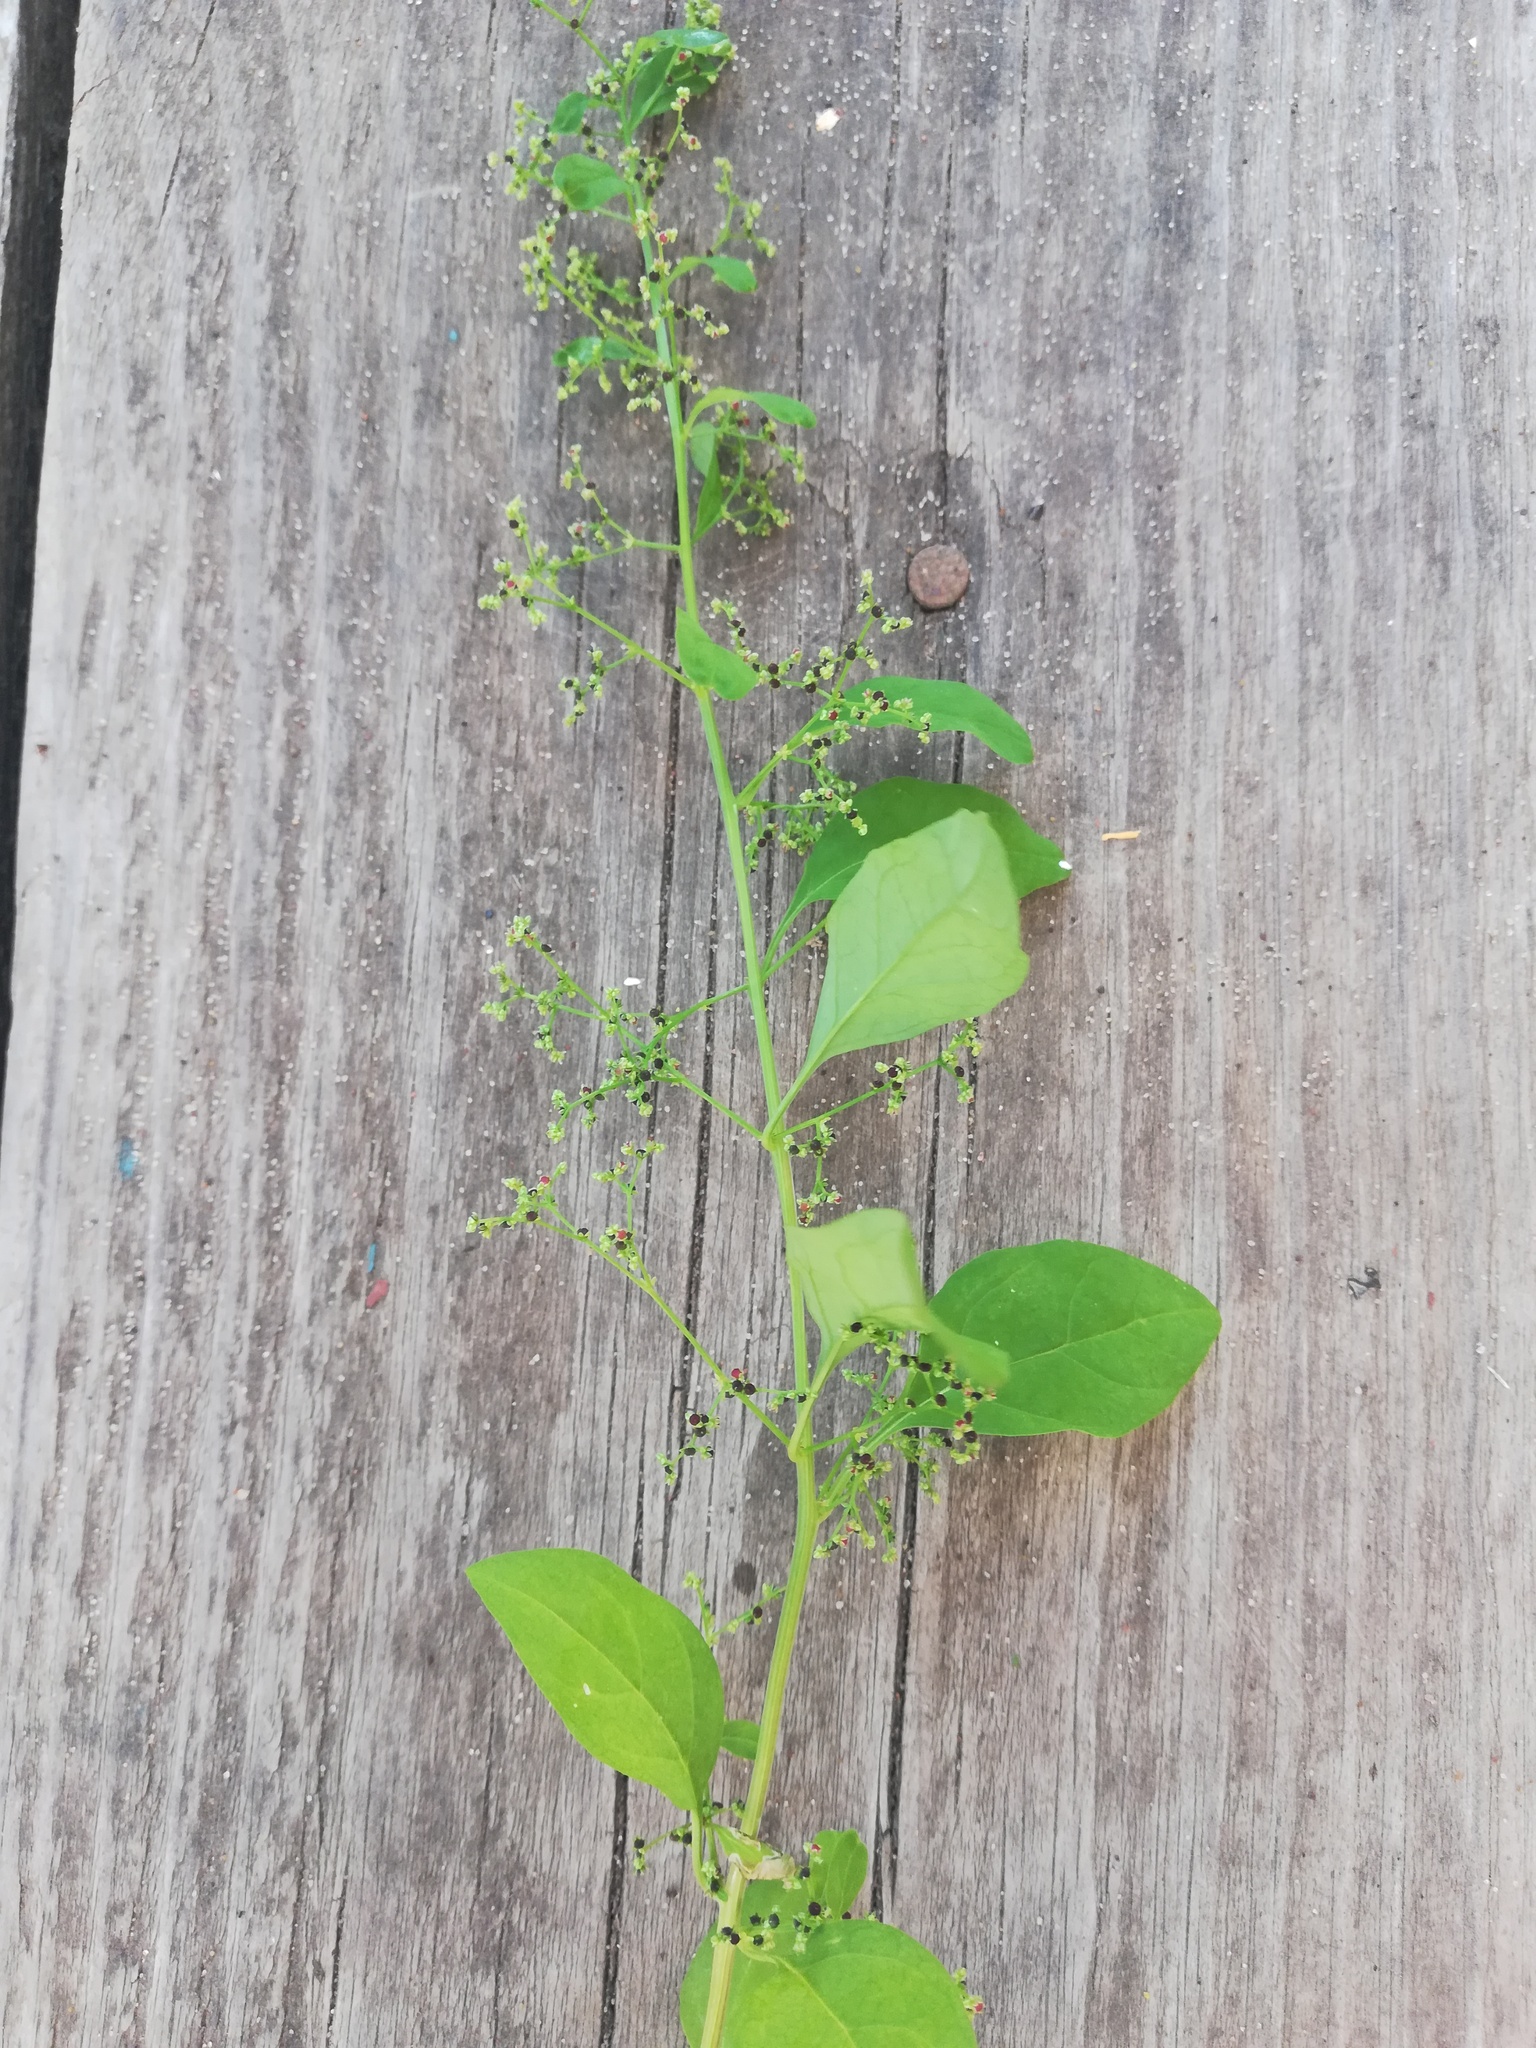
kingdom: Plantae
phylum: Tracheophyta
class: Magnoliopsida
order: Caryophyllales
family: Amaranthaceae
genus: Lipandra
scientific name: Lipandra polysperma
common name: Many-seed goosefoot
